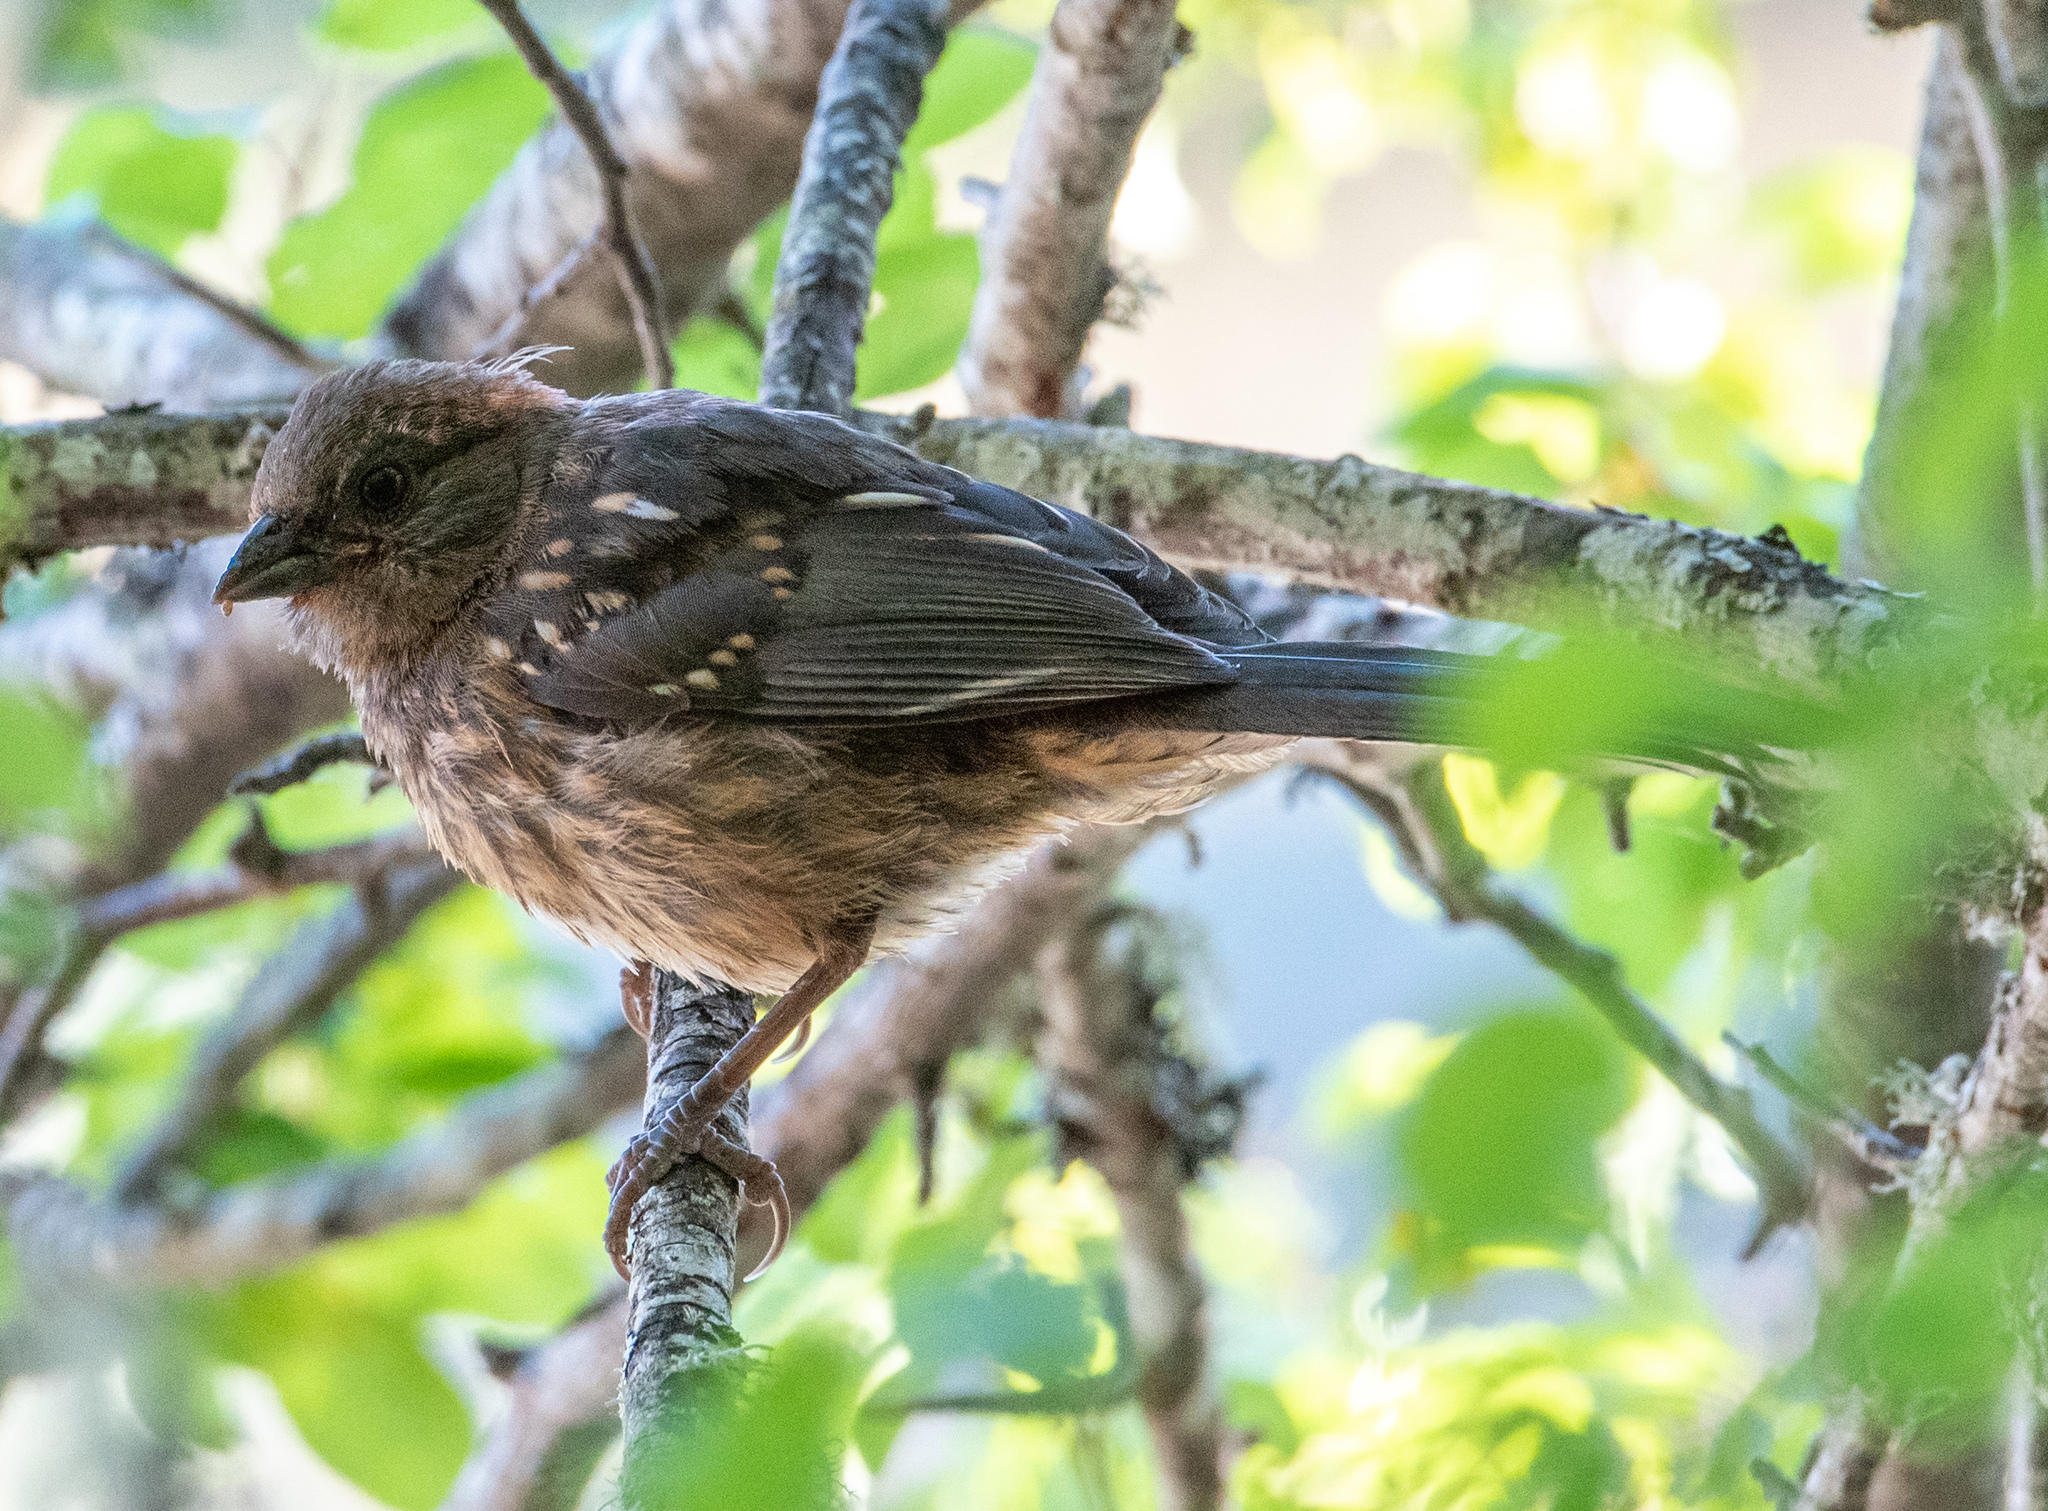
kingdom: Animalia
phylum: Chordata
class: Aves
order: Passeriformes
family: Passerellidae
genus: Pipilo
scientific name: Pipilo maculatus
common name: Spotted towhee
